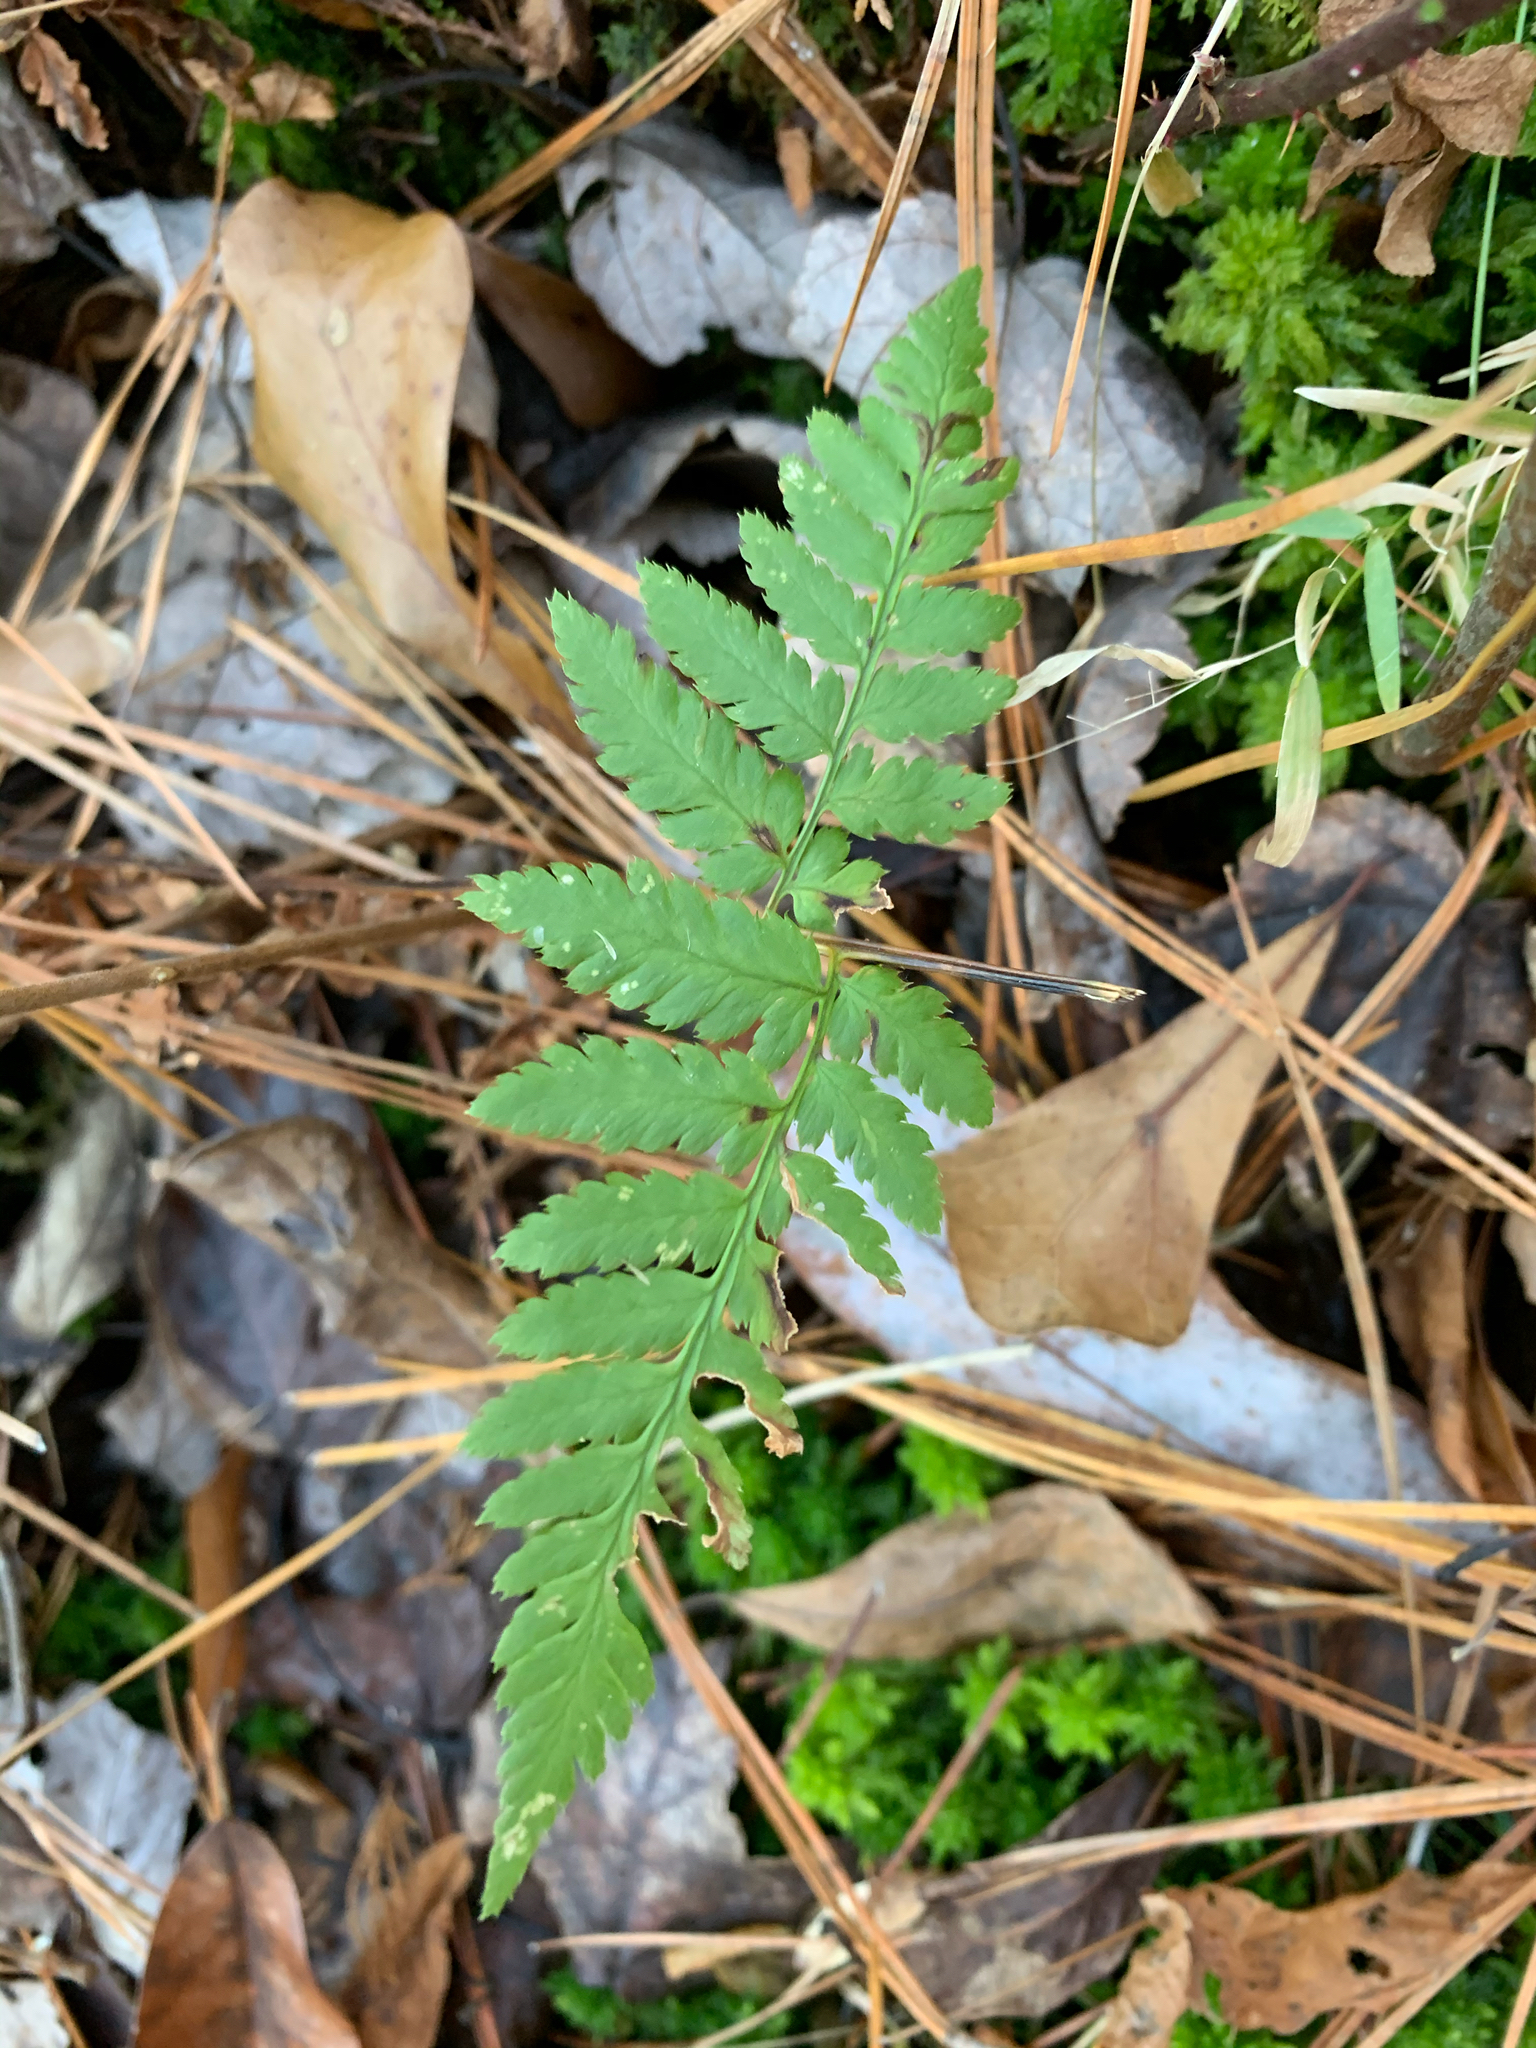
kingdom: Plantae
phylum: Tracheophyta
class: Polypodiopsida
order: Polypodiales
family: Dryopteridaceae
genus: Dryopteris
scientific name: Dryopteris carthusiana
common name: Narrow buckler-fern
